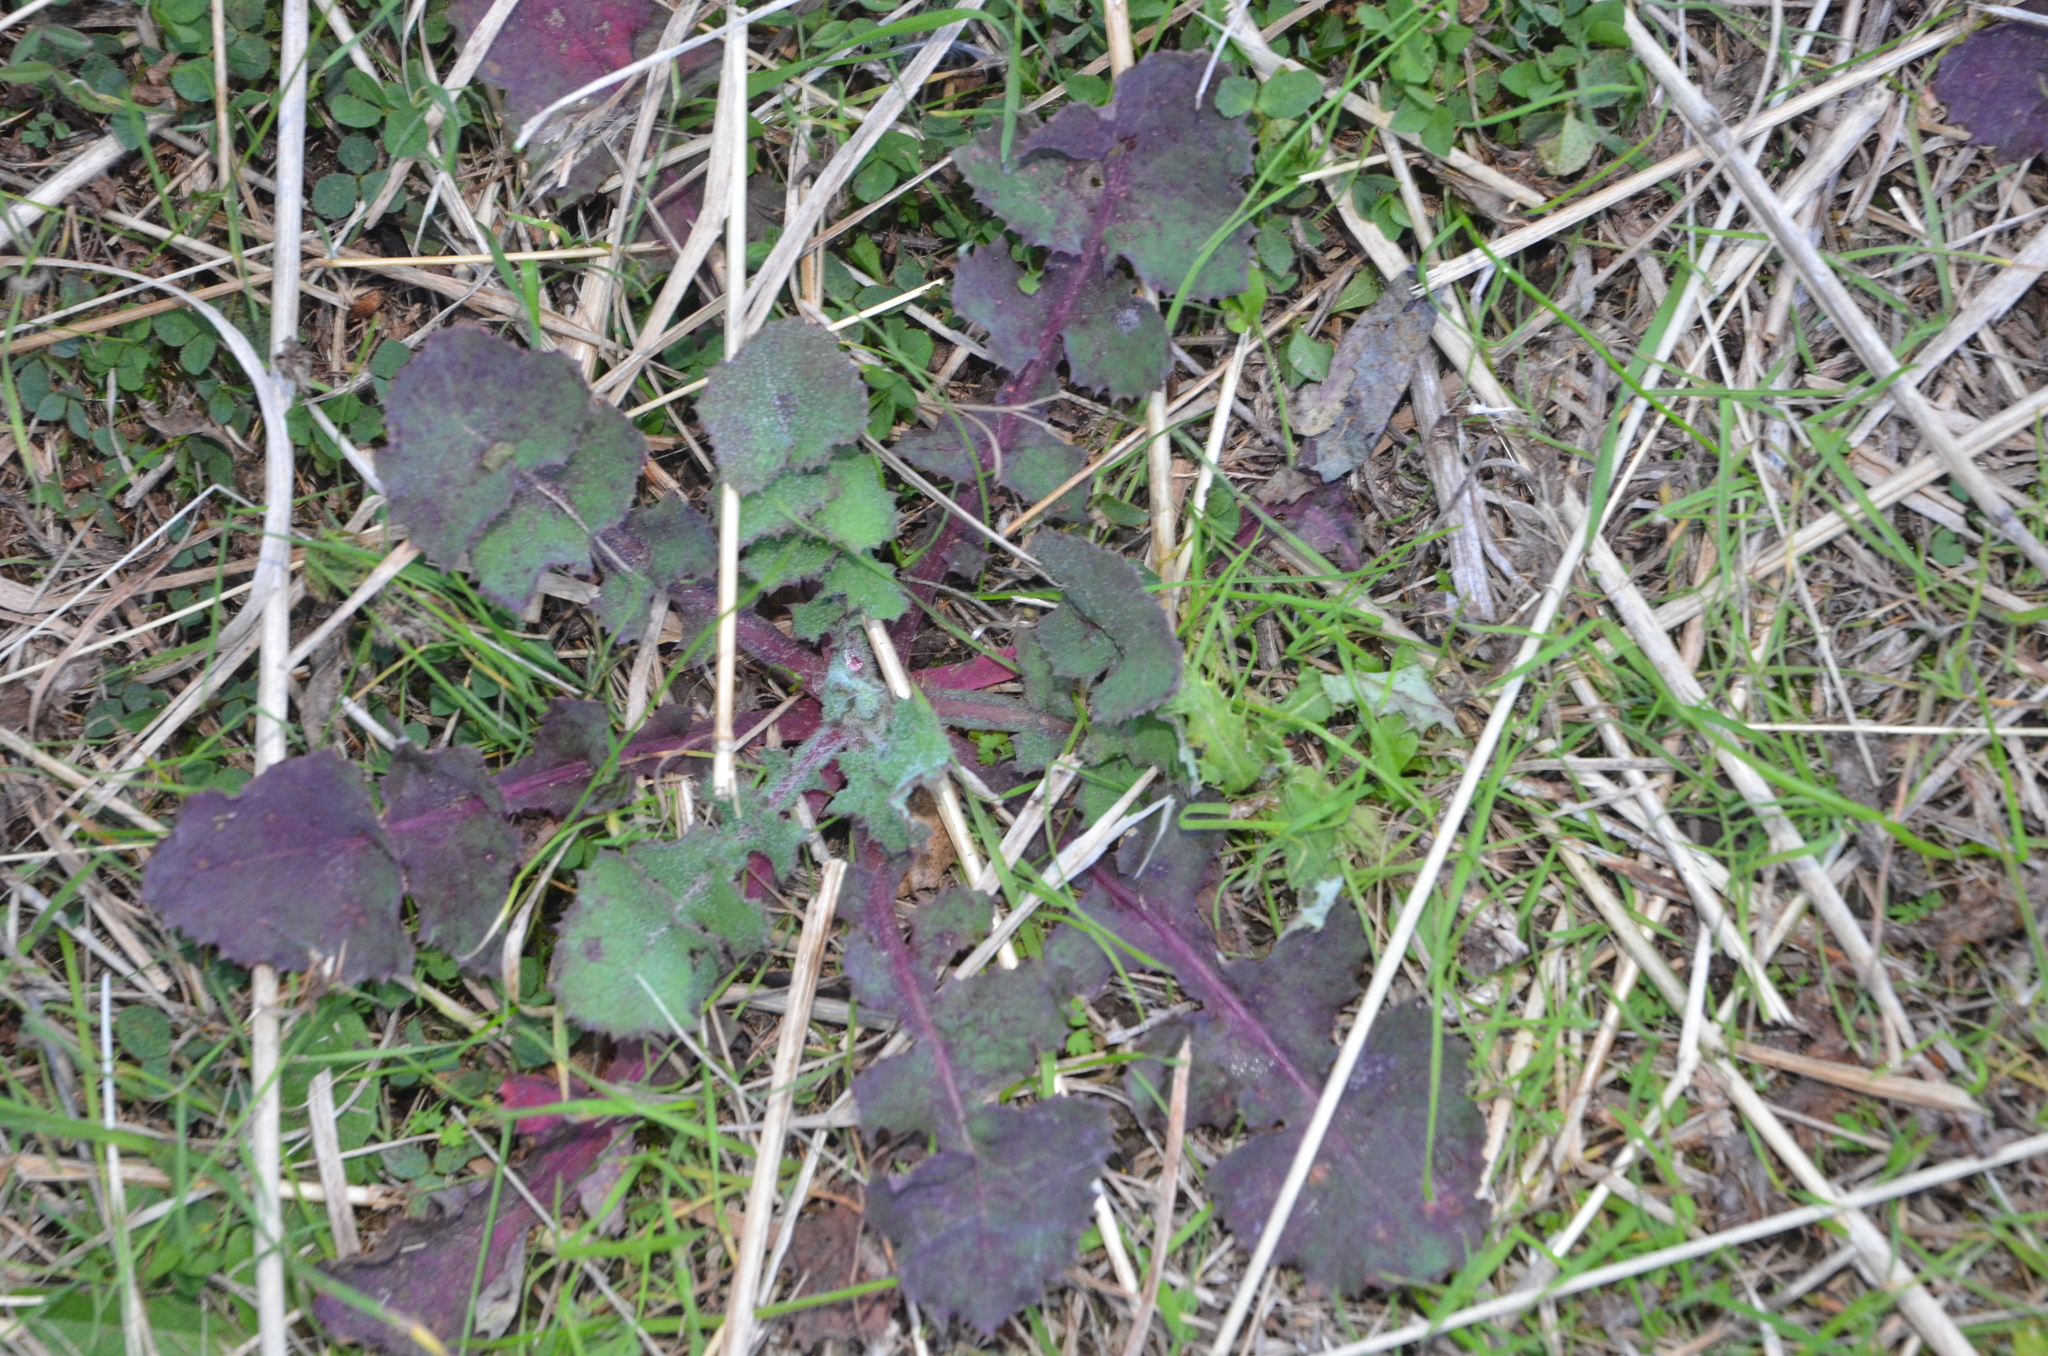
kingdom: Plantae
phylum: Tracheophyta
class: Magnoliopsida
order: Asterales
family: Asteraceae
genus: Sonchus
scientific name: Sonchus oleraceus
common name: Common sowthistle
